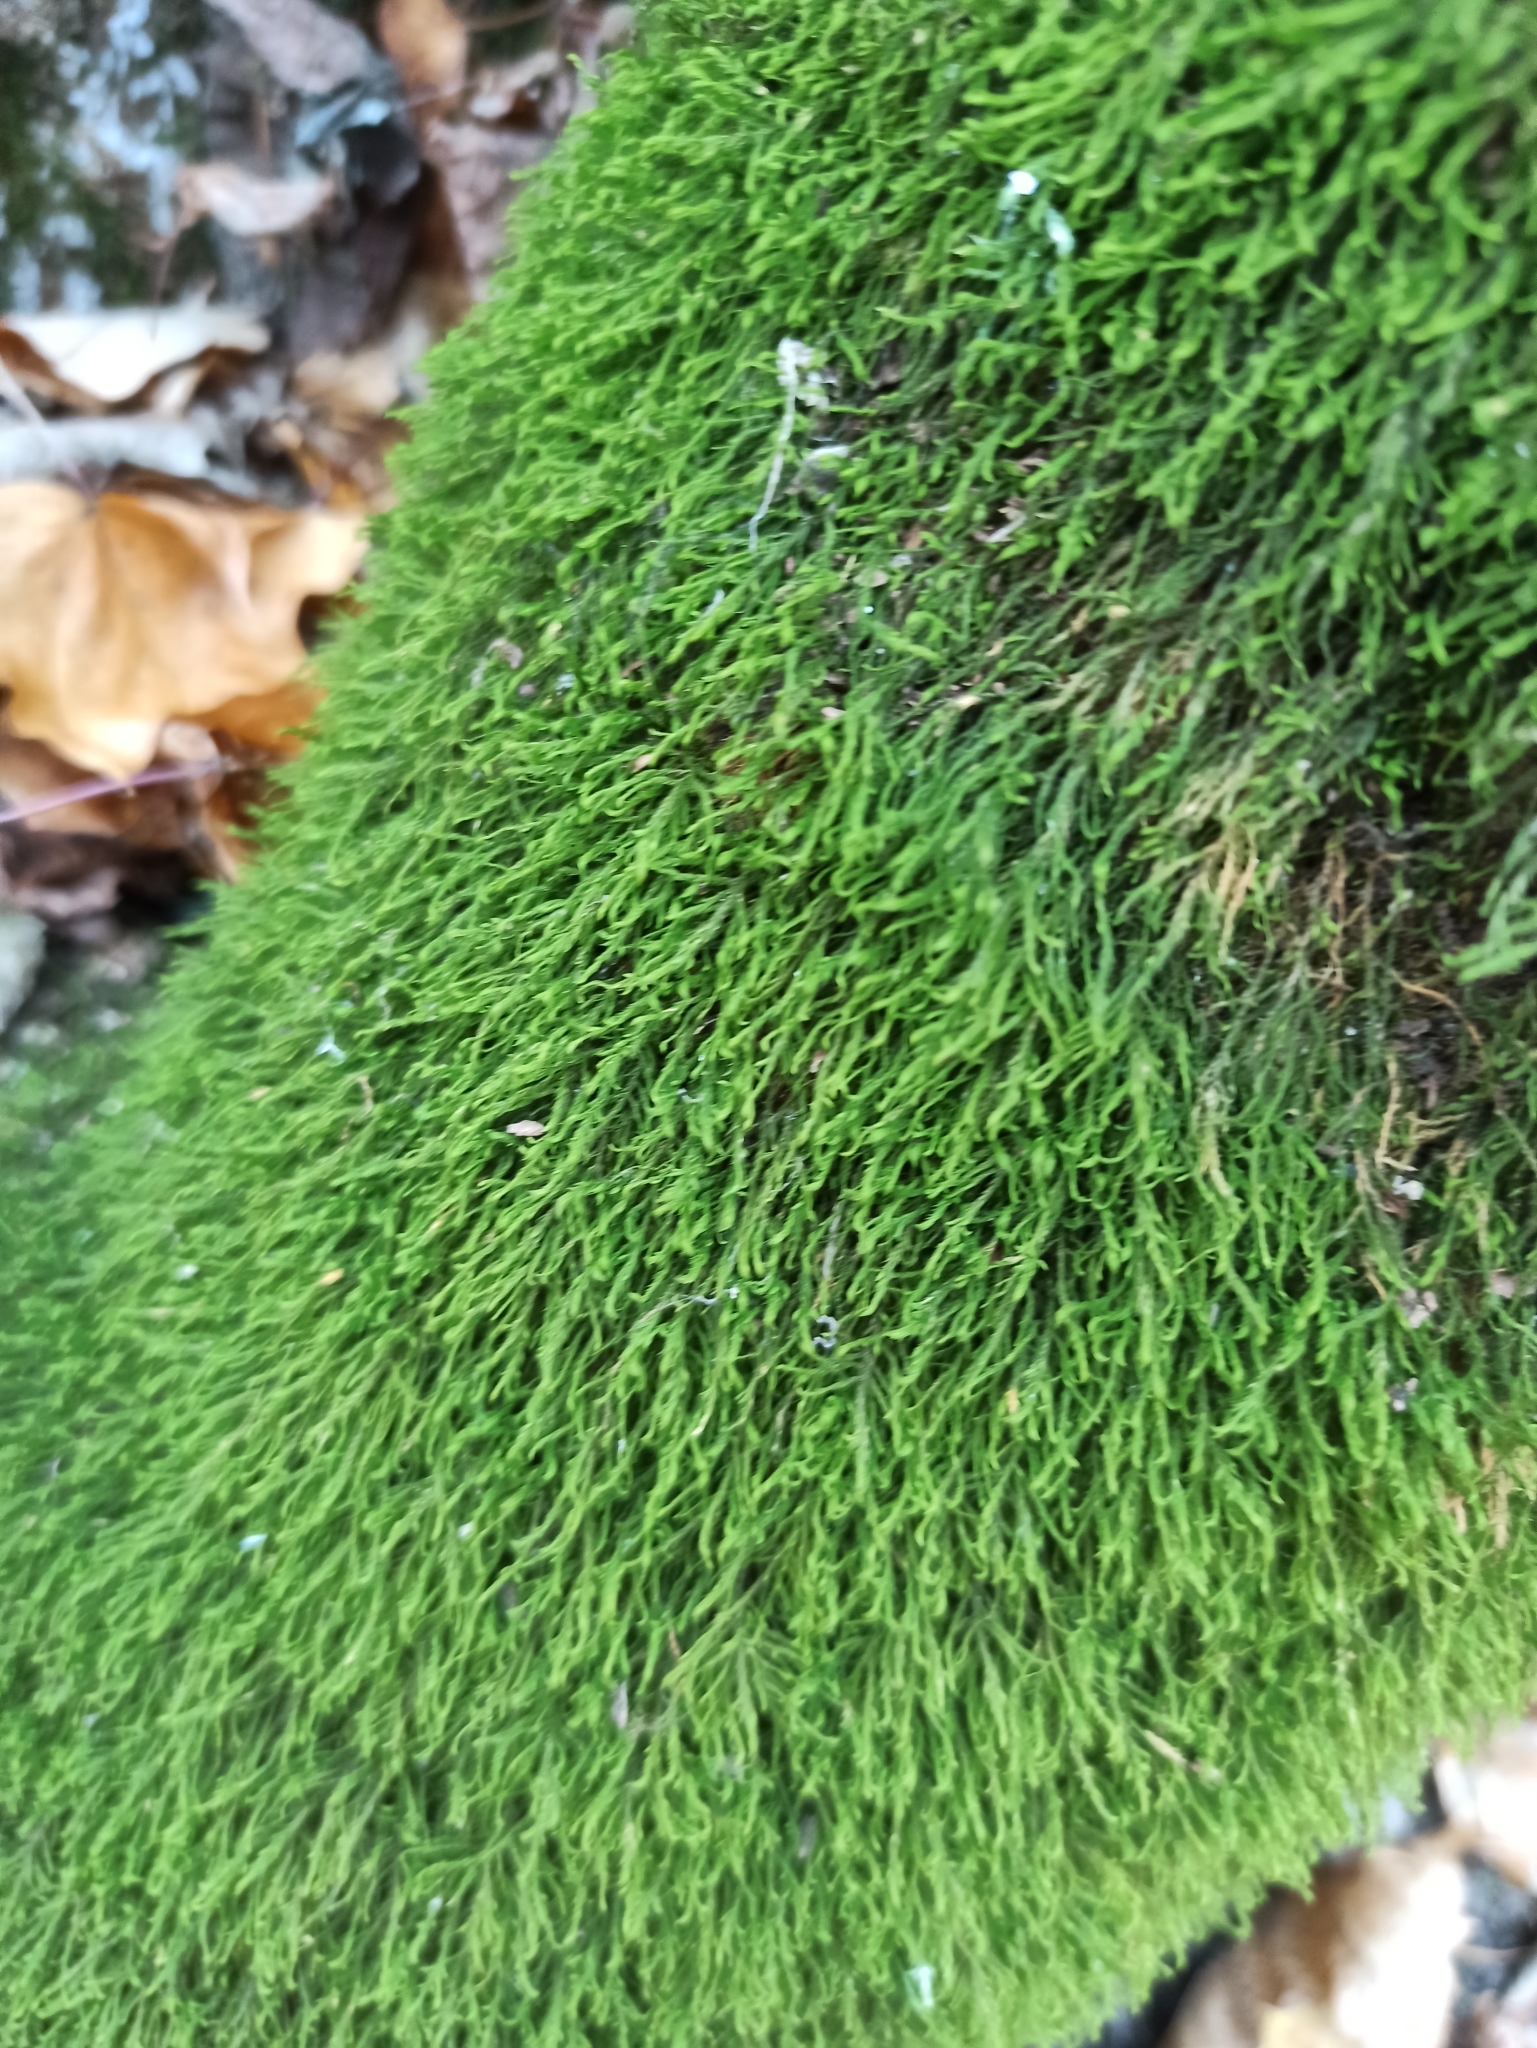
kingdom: Plantae
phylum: Bryophyta
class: Bryopsida
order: Hypnales
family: Neckeraceae
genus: Pseudanomodon
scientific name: Pseudanomodon attenuatus
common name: Tree-skirt moss
